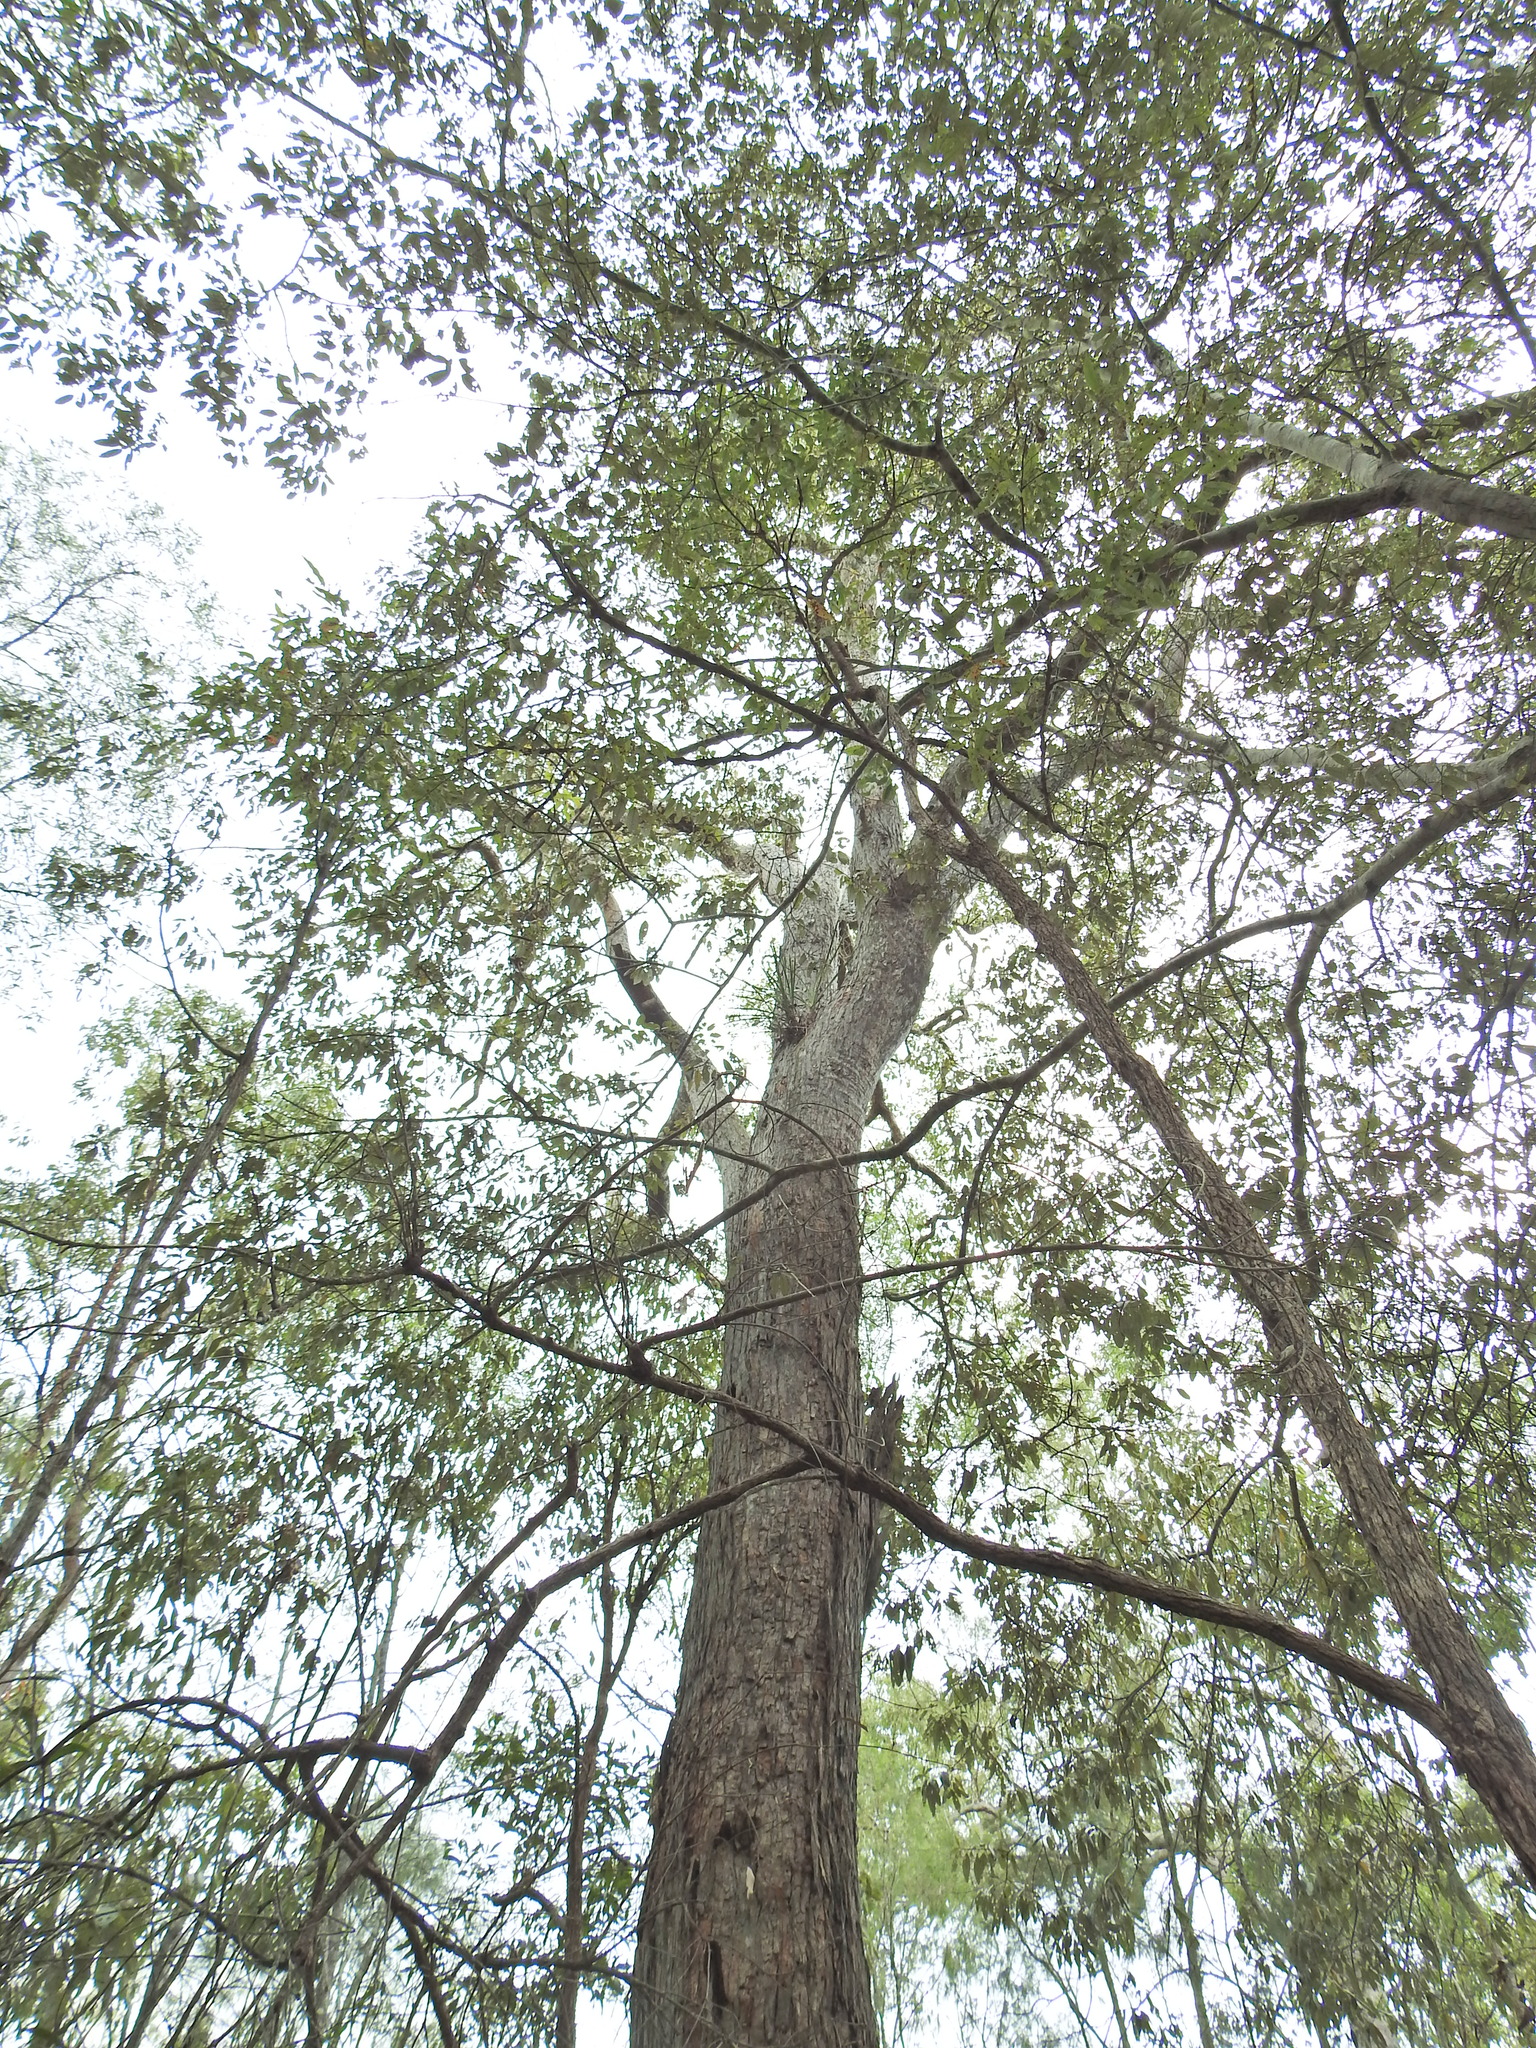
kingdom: Plantae
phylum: Tracheophyta
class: Liliopsida
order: Asparagales
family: Orchidaceae
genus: Cymbidium
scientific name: Cymbidium suave
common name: Snake orchid
